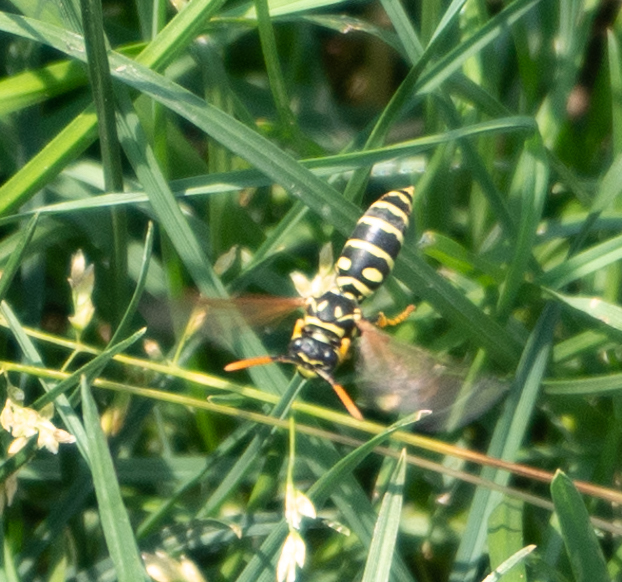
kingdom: Animalia
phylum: Arthropoda
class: Insecta
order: Hymenoptera
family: Eumenidae
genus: Polistes
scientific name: Polistes dominula
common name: Paper wasp
